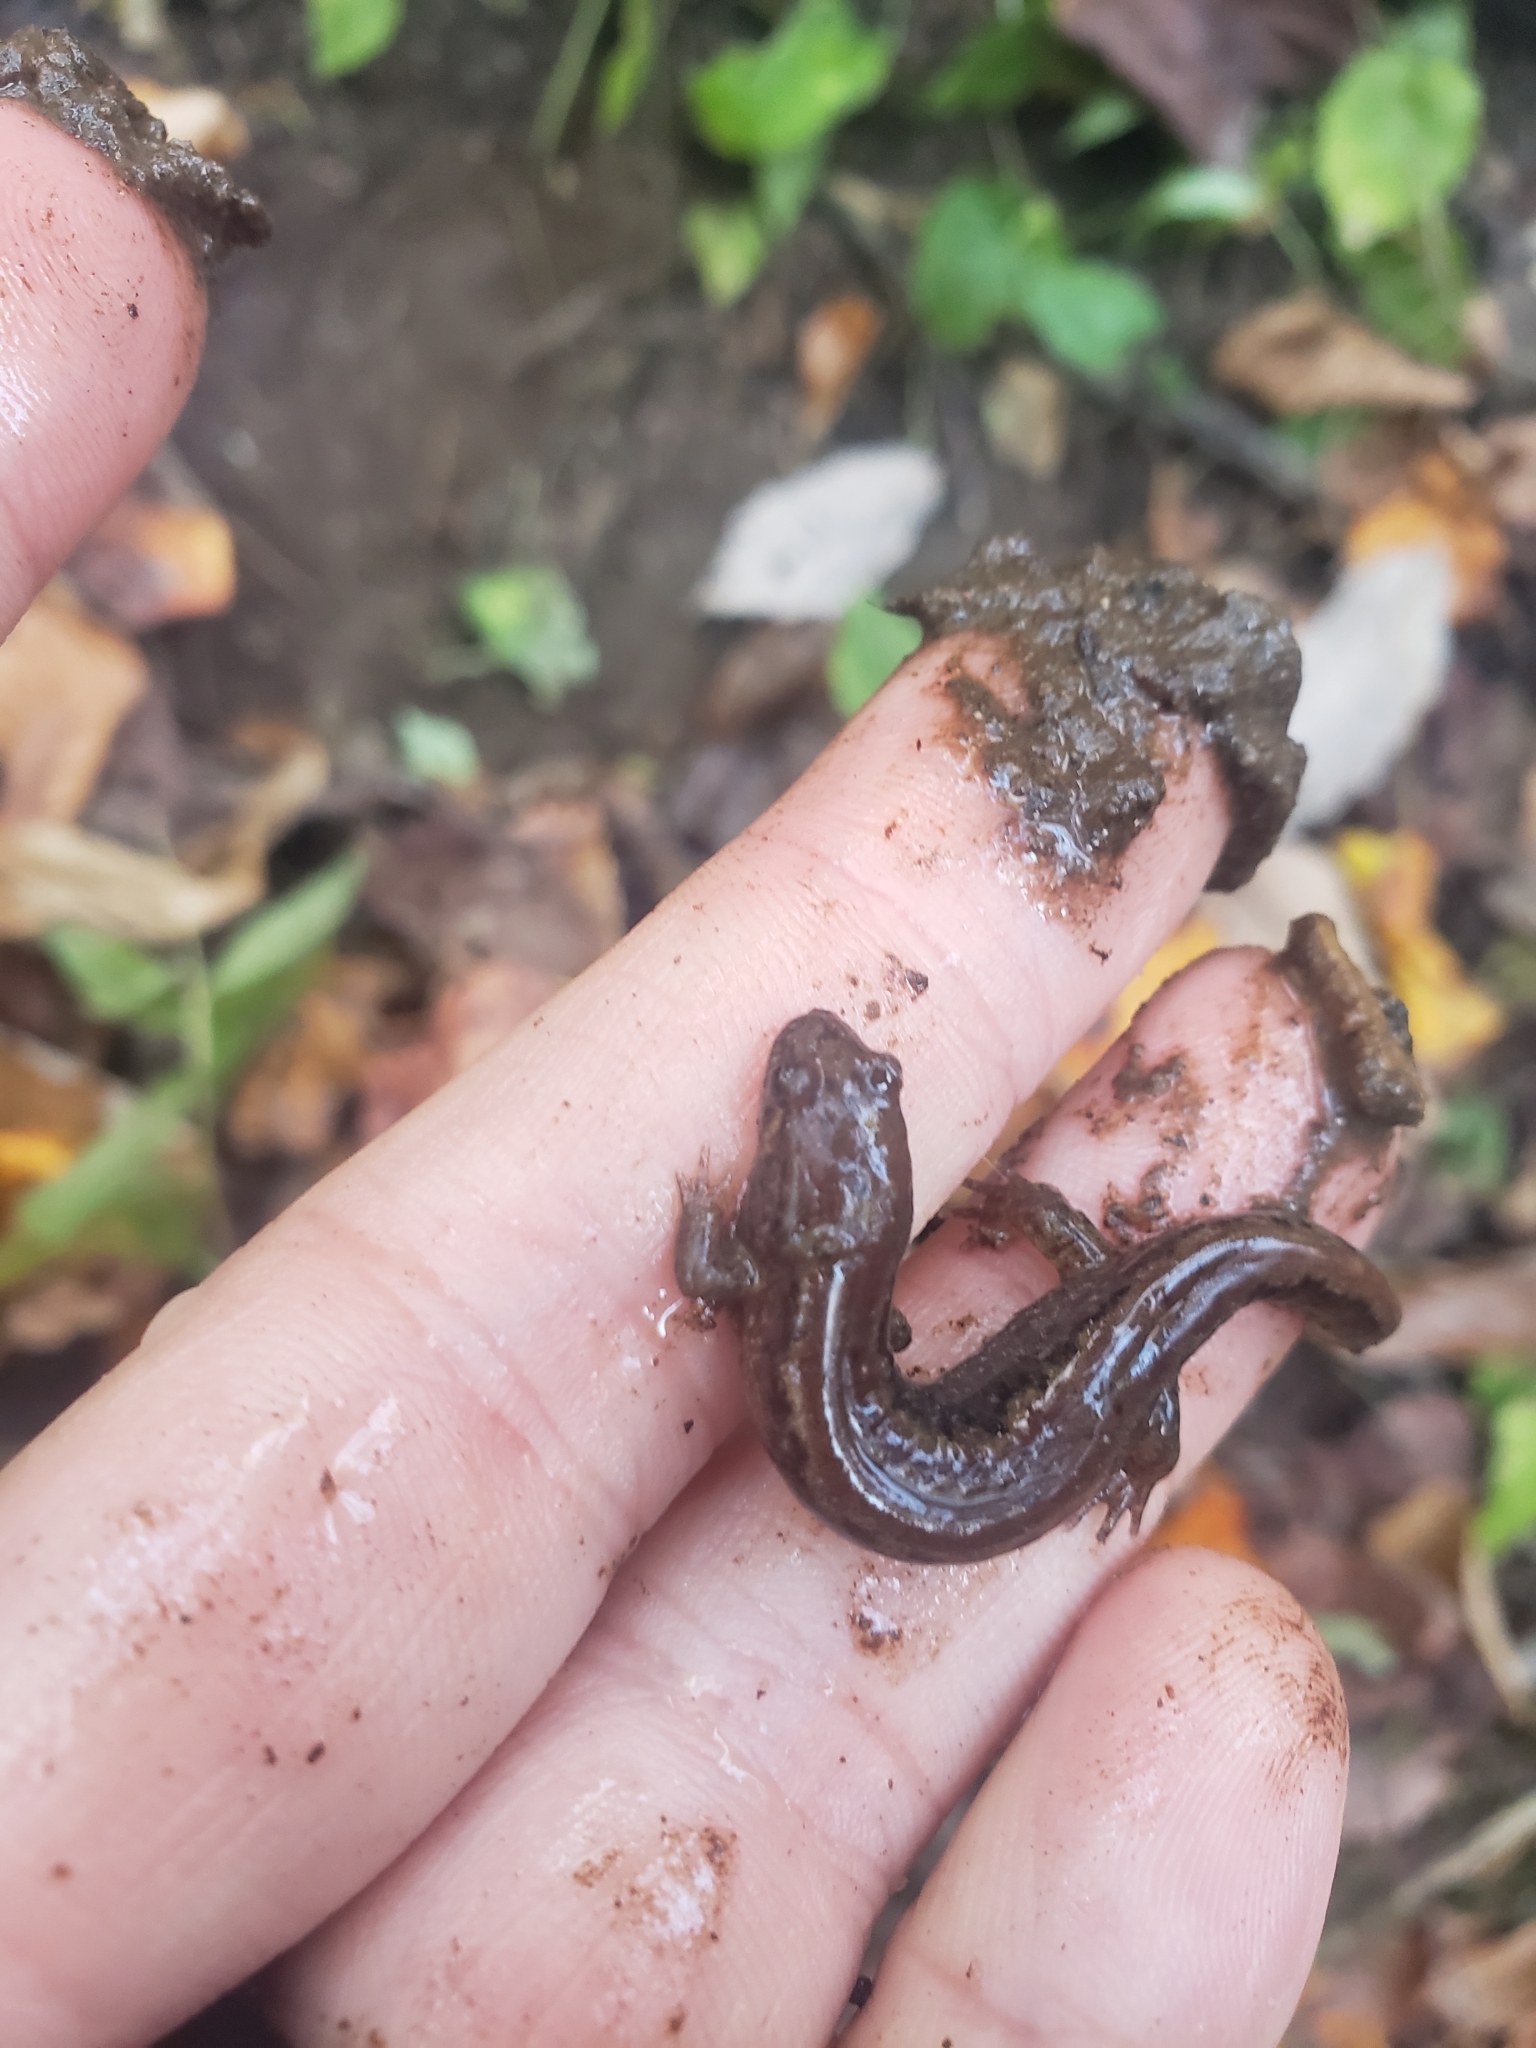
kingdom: Animalia
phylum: Chordata
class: Amphibia
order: Caudata
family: Plethodontidae
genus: Desmognathus
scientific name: Desmognathus fuscus
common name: Northern dusky salamander
